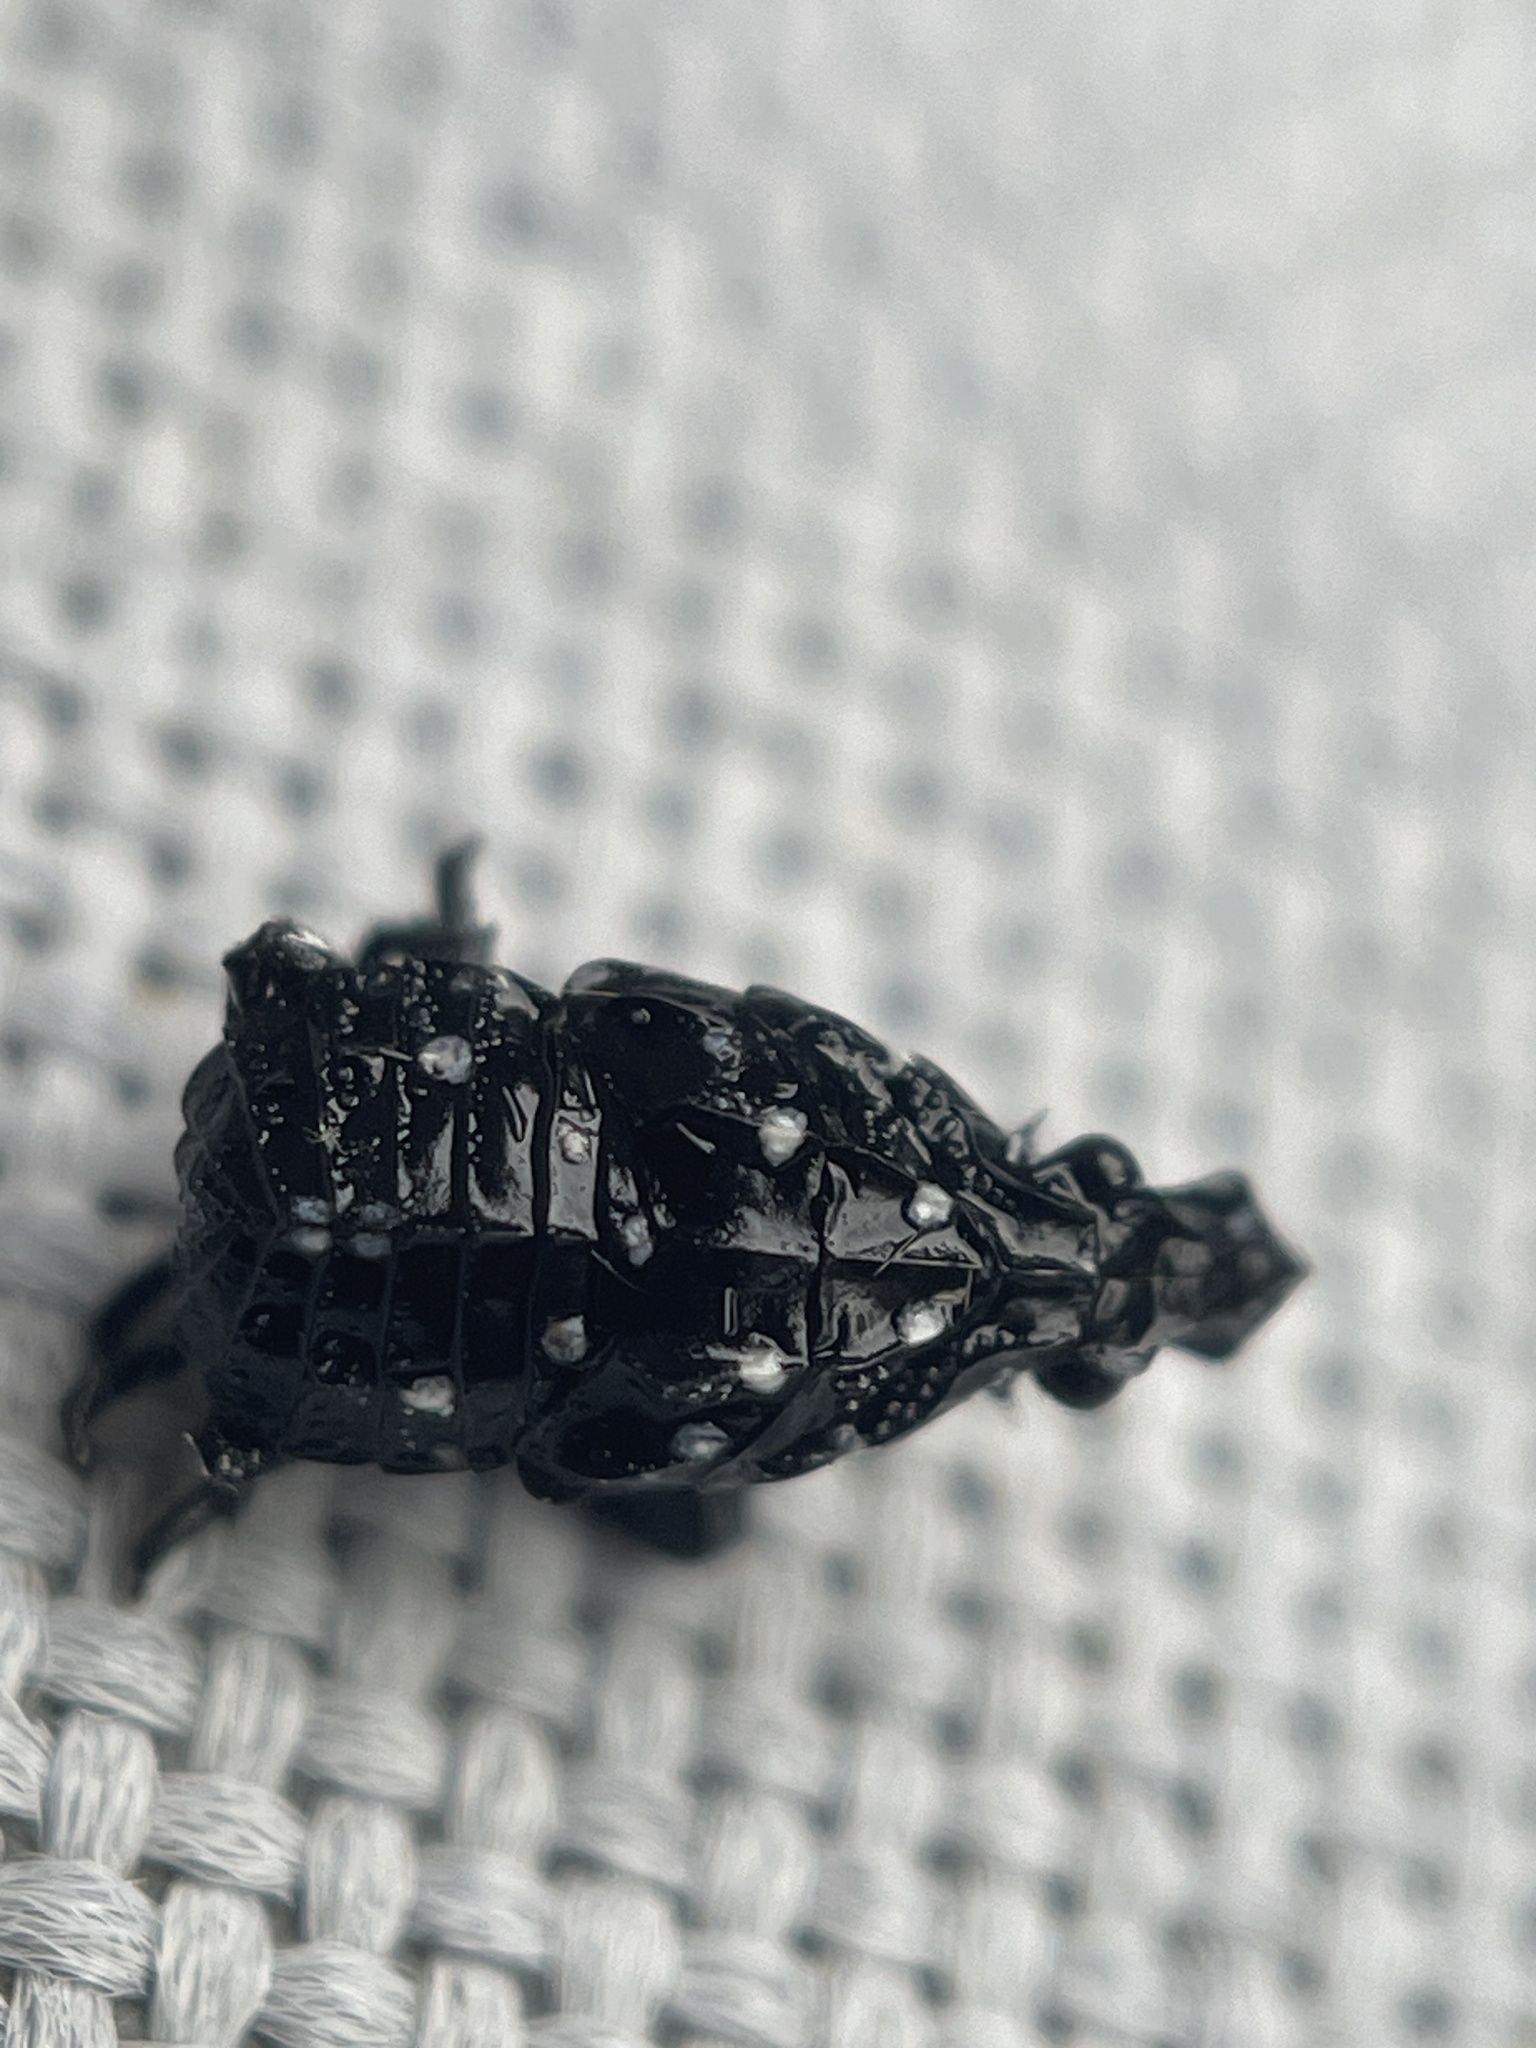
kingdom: Animalia
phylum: Arthropoda
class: Insecta
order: Hemiptera
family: Fulgoridae
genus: Lycorma
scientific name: Lycorma delicatula
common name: Spotted lanternfly
